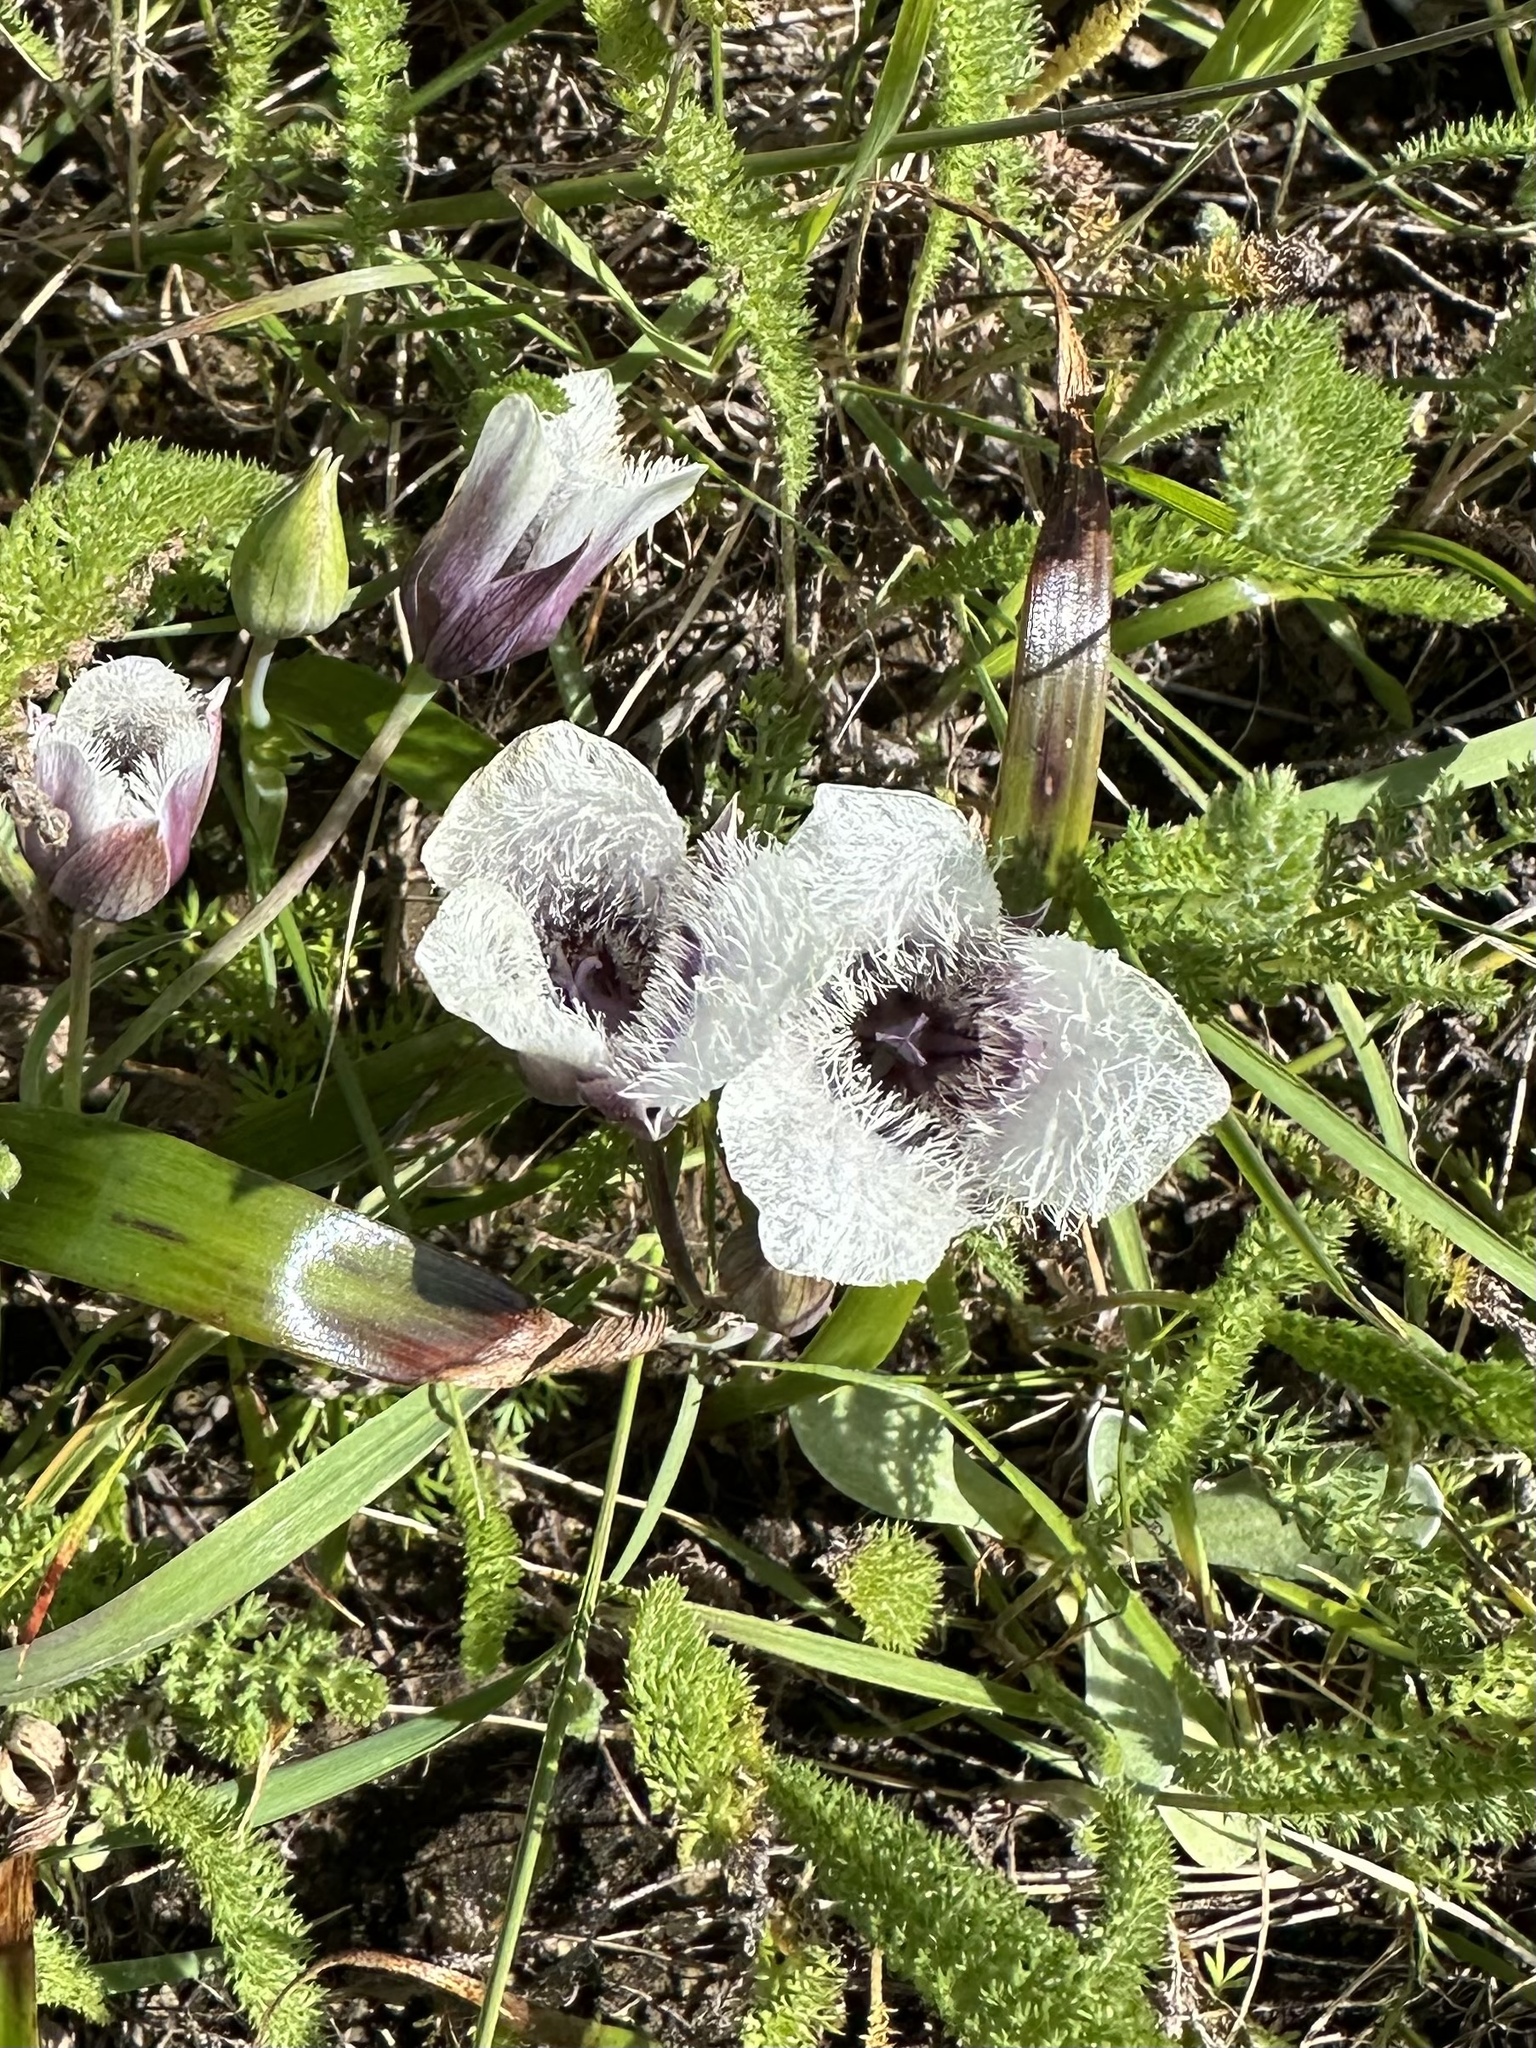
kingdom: Plantae
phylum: Tracheophyta
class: Liliopsida
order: Liliales
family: Liliaceae
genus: Calochortus
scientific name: Calochortus tolmiei
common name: Pussy-ears
